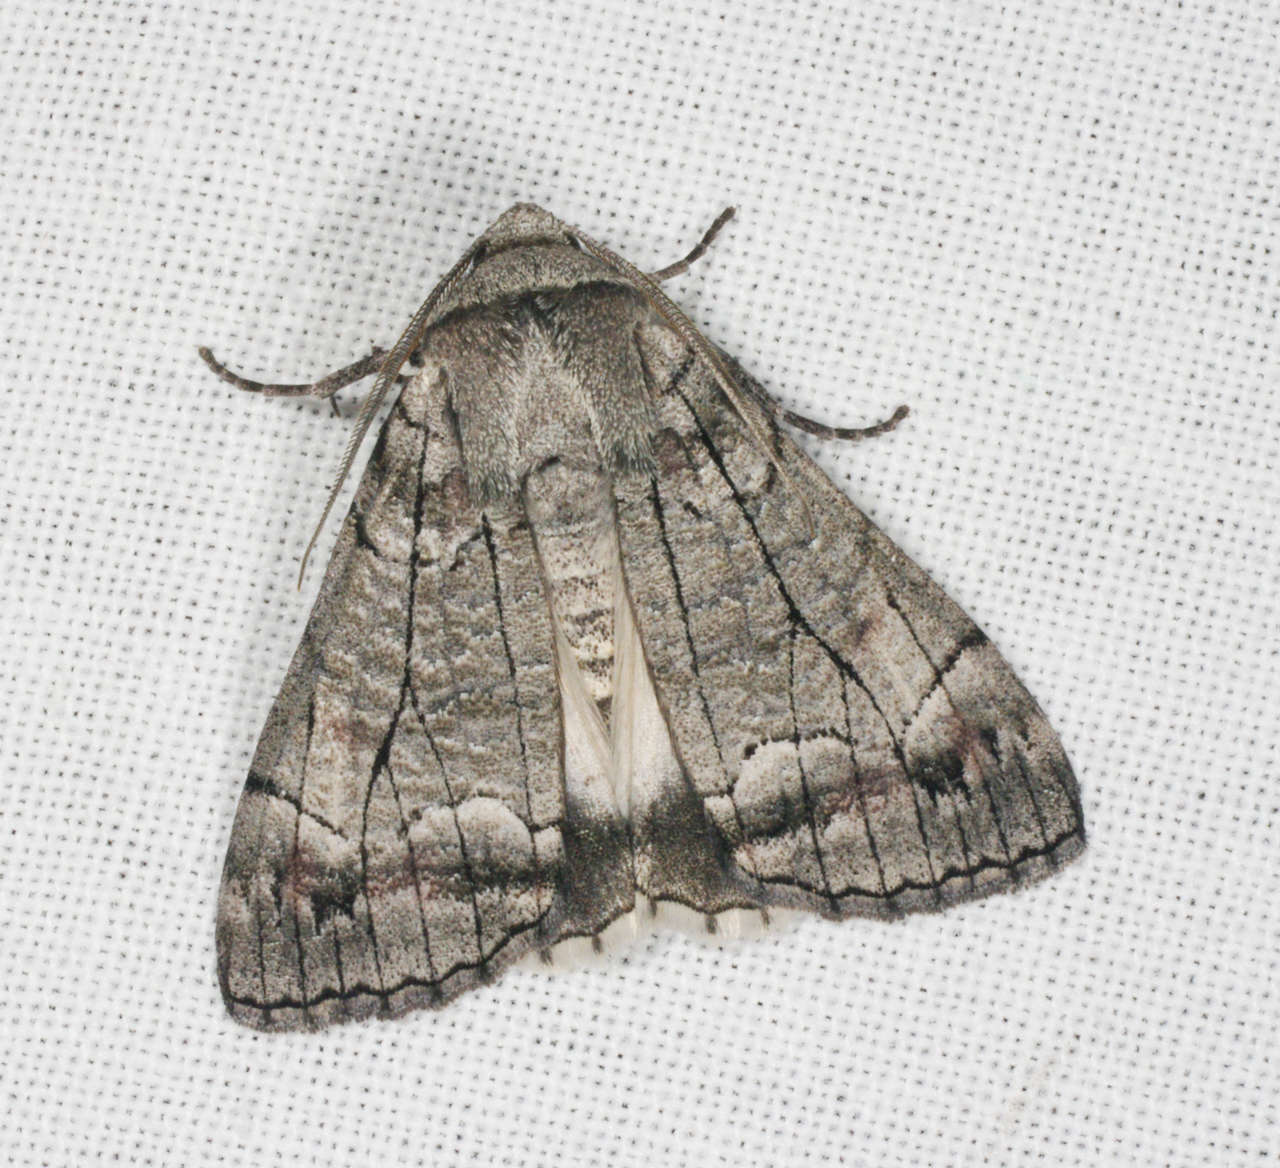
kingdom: Animalia
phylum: Arthropoda
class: Insecta
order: Lepidoptera
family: Geometridae
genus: Stibaroma
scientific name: Stibaroma
